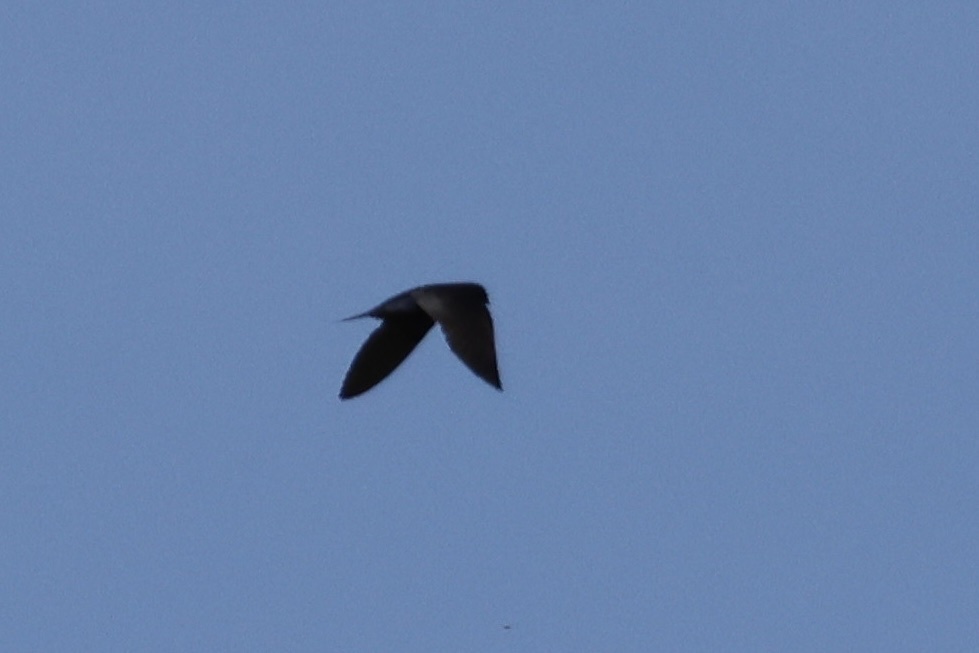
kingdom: Animalia
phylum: Chordata
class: Aves
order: Passeriformes
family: Hirundinidae
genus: Progne
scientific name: Progne subis
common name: Purple martin
